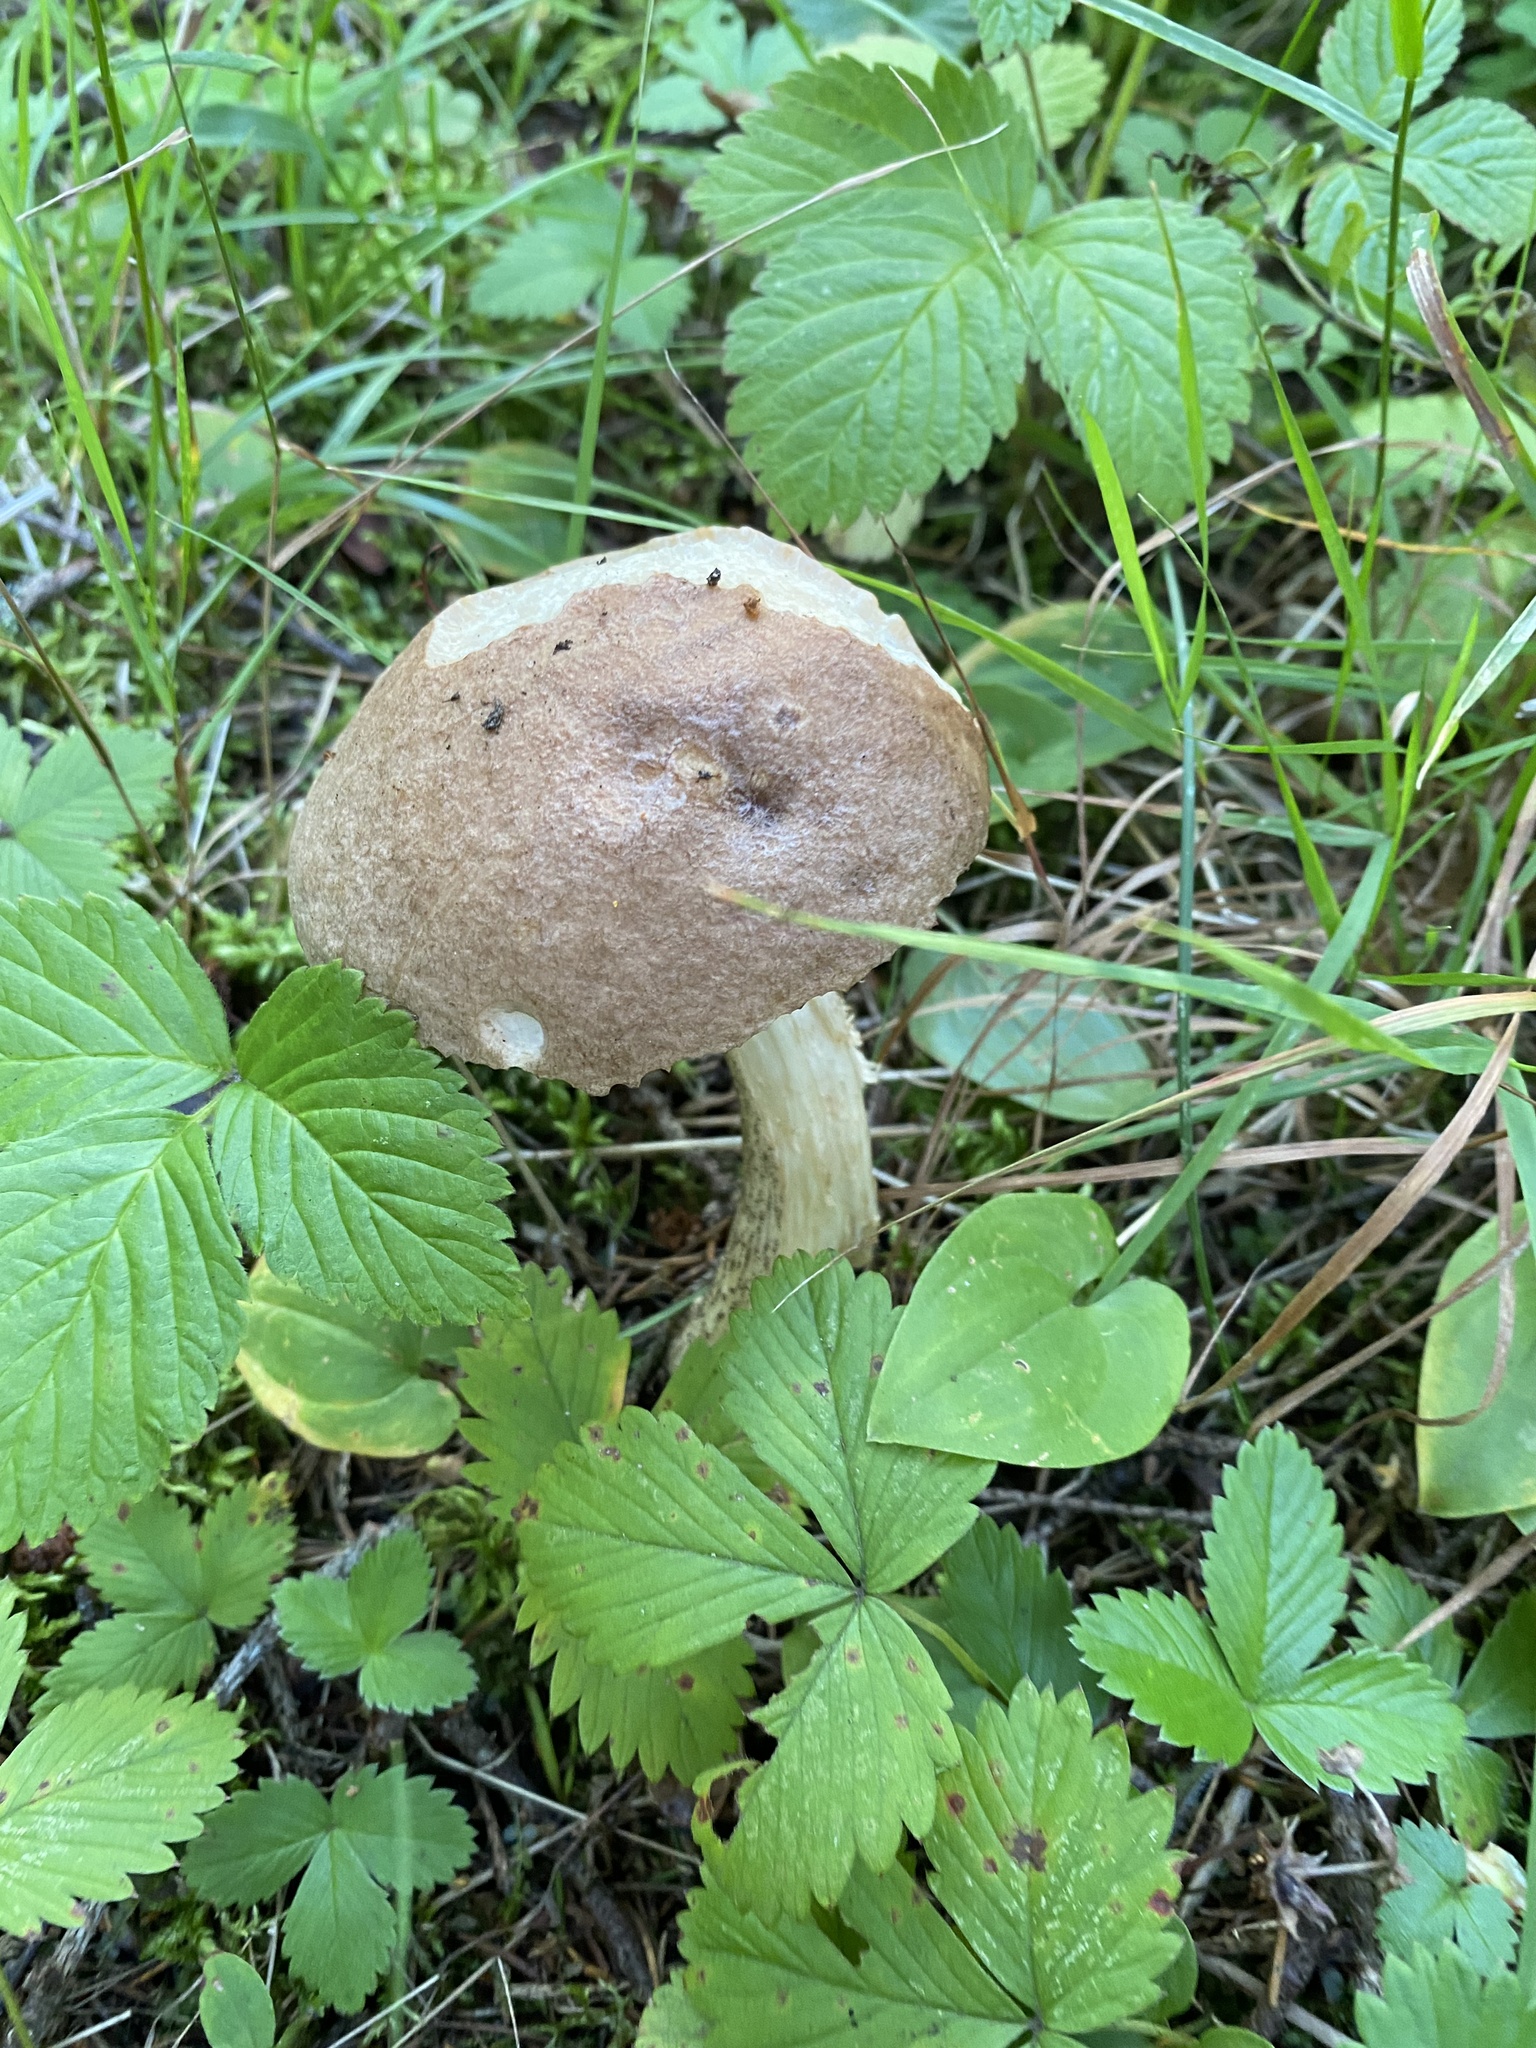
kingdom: Fungi
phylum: Basidiomycota
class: Agaricomycetes
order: Boletales
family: Boletaceae
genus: Leccinum
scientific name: Leccinum scabrum
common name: Blushing bolete
